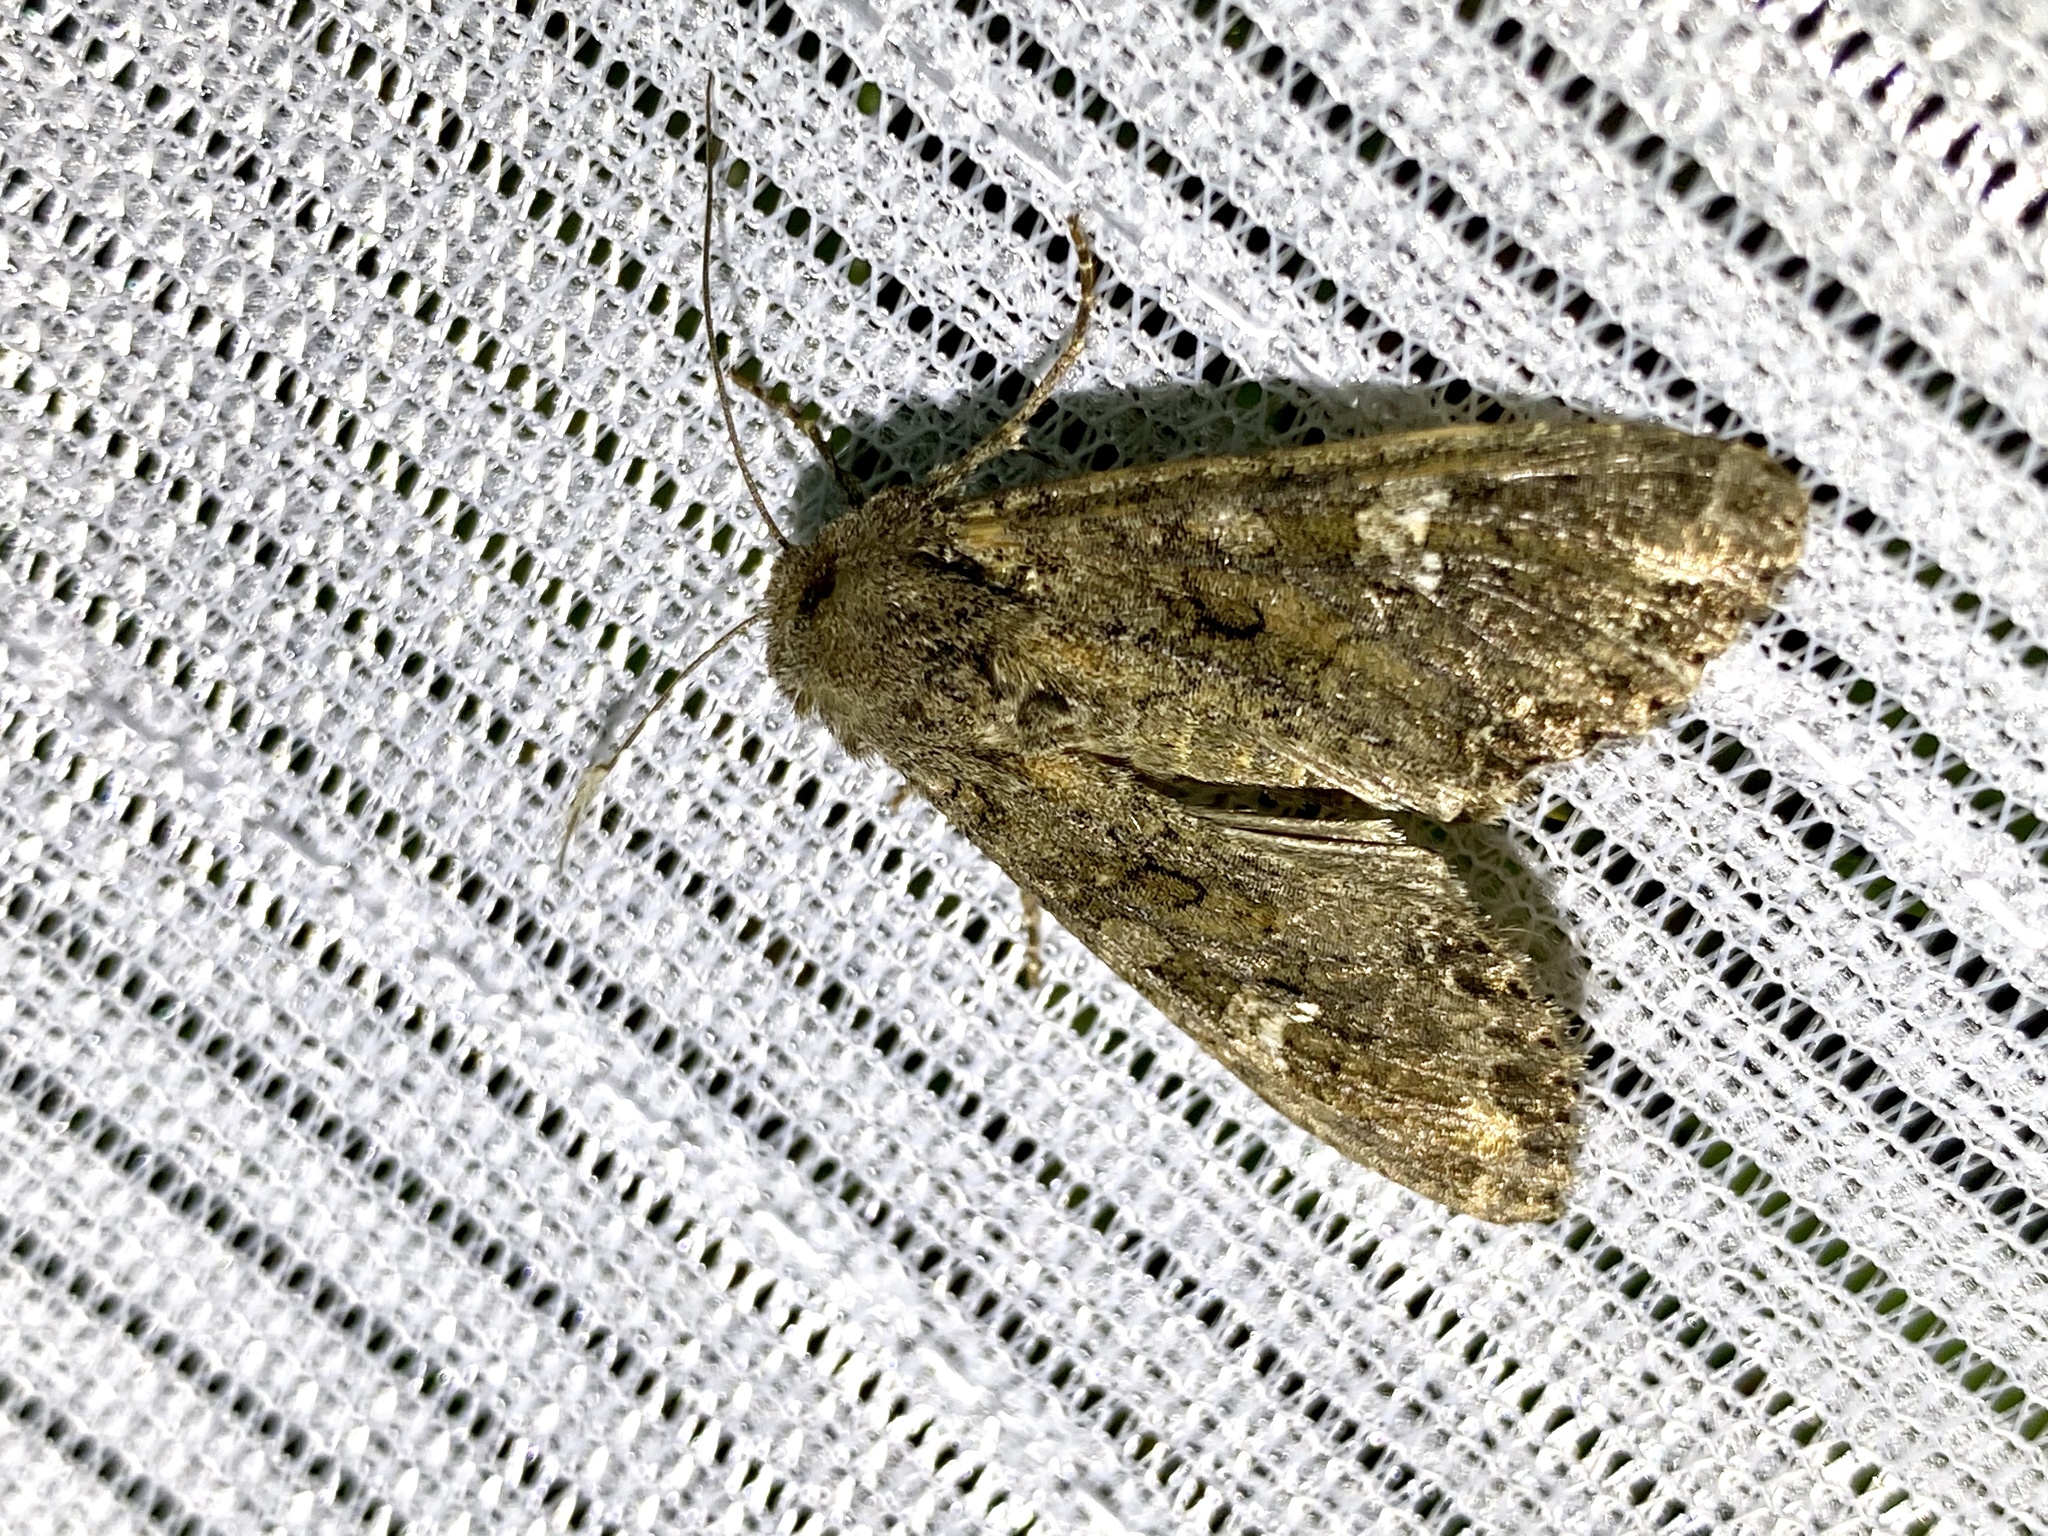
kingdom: Animalia
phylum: Arthropoda
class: Insecta
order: Lepidoptera
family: Noctuidae
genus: Mamestra
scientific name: Mamestra brassicae
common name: Cabbage moth
